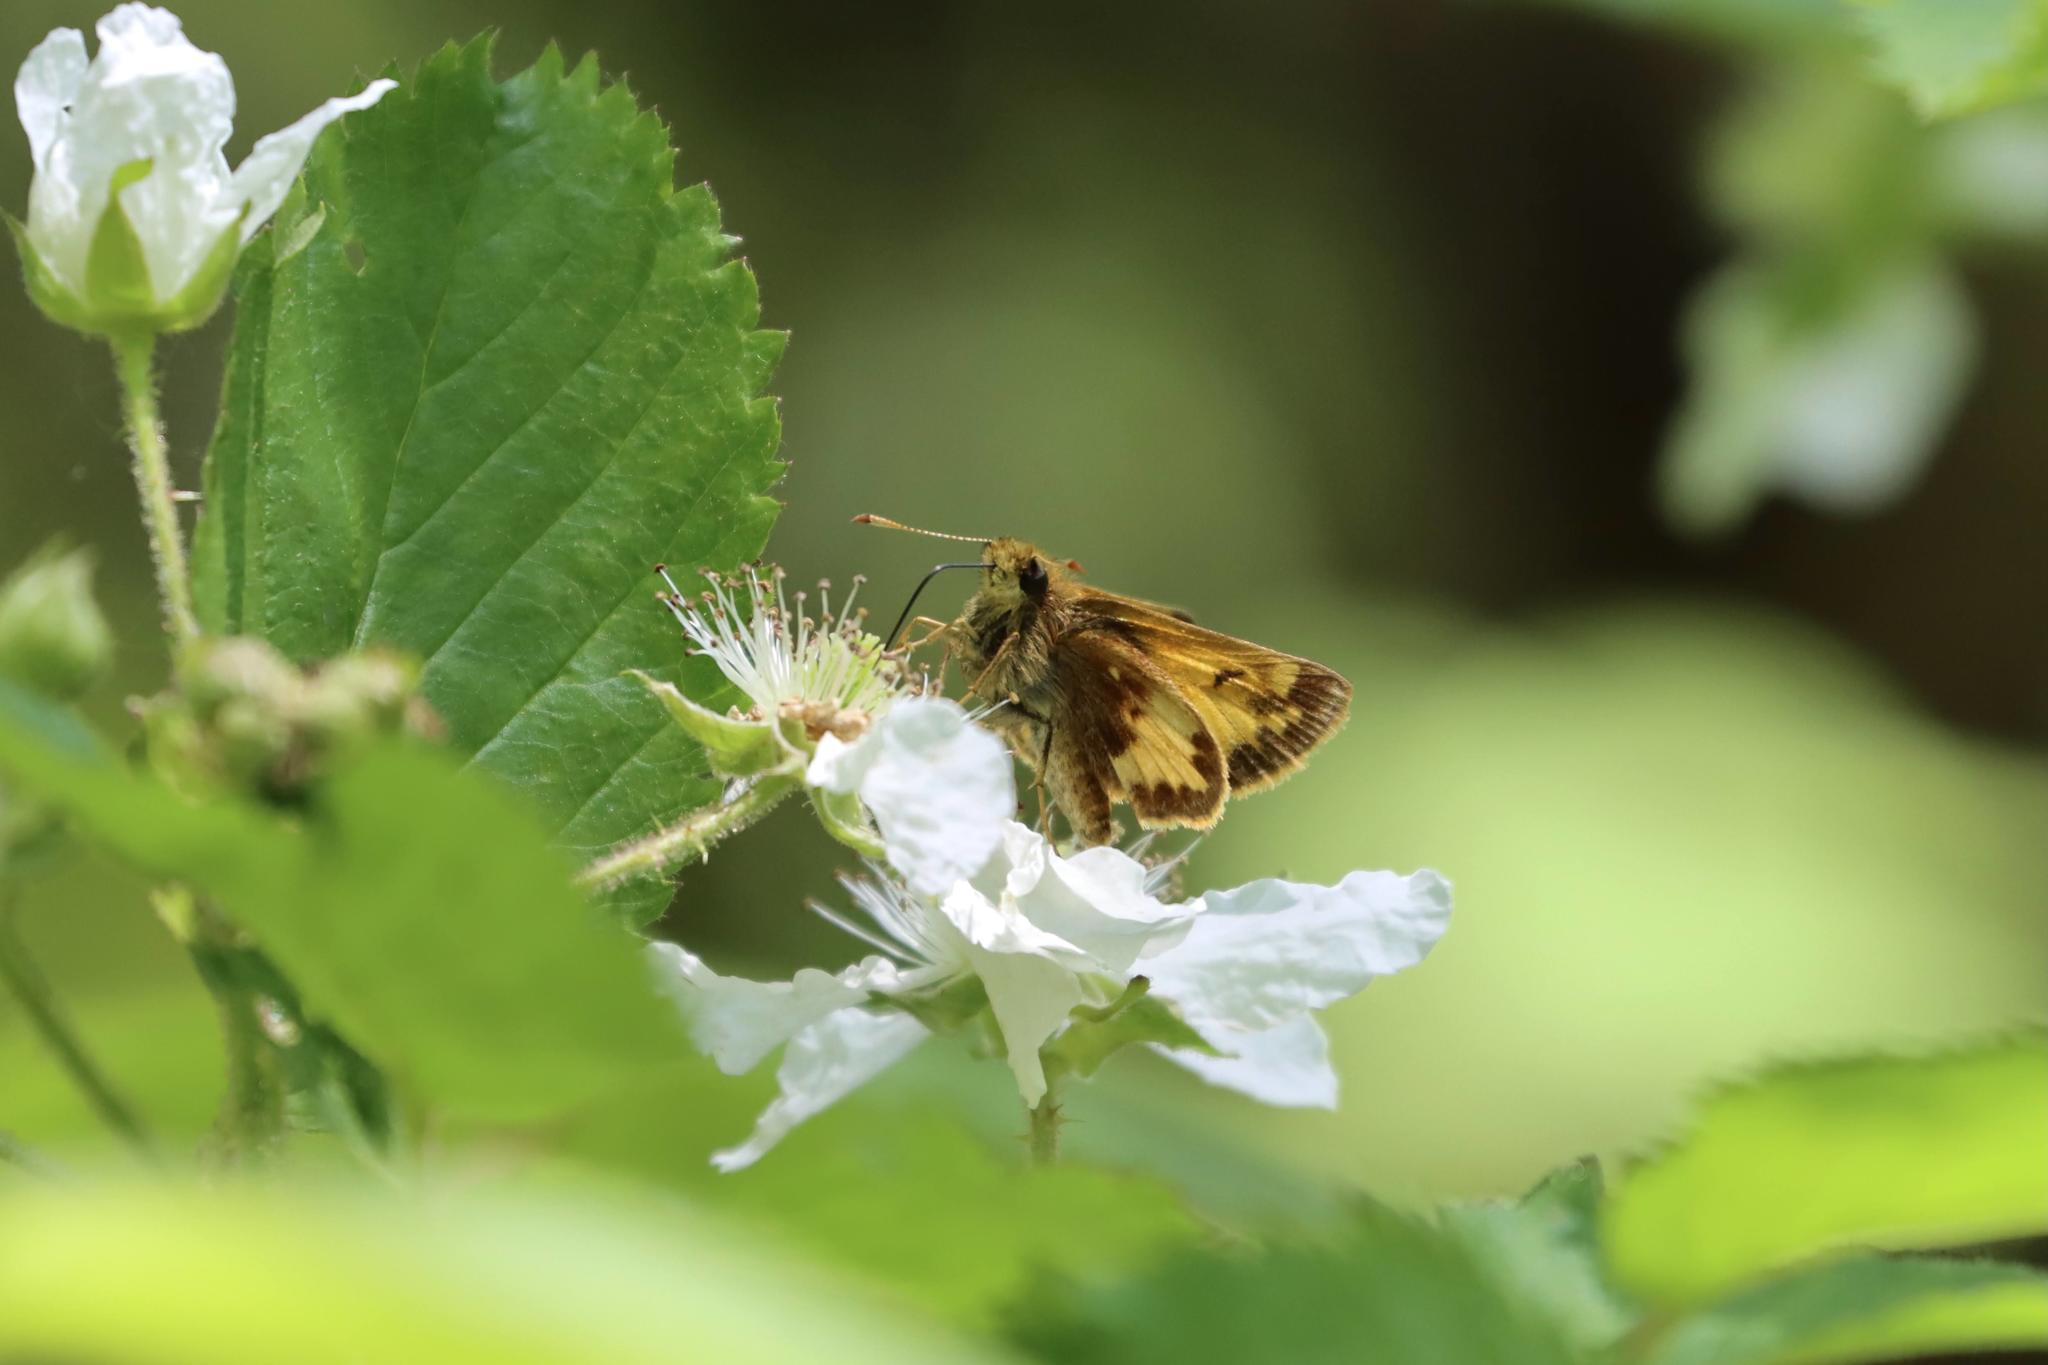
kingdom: Animalia
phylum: Arthropoda
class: Insecta
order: Lepidoptera
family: Hesperiidae
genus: Lon
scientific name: Lon hobomok
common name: Hobomok skipper
